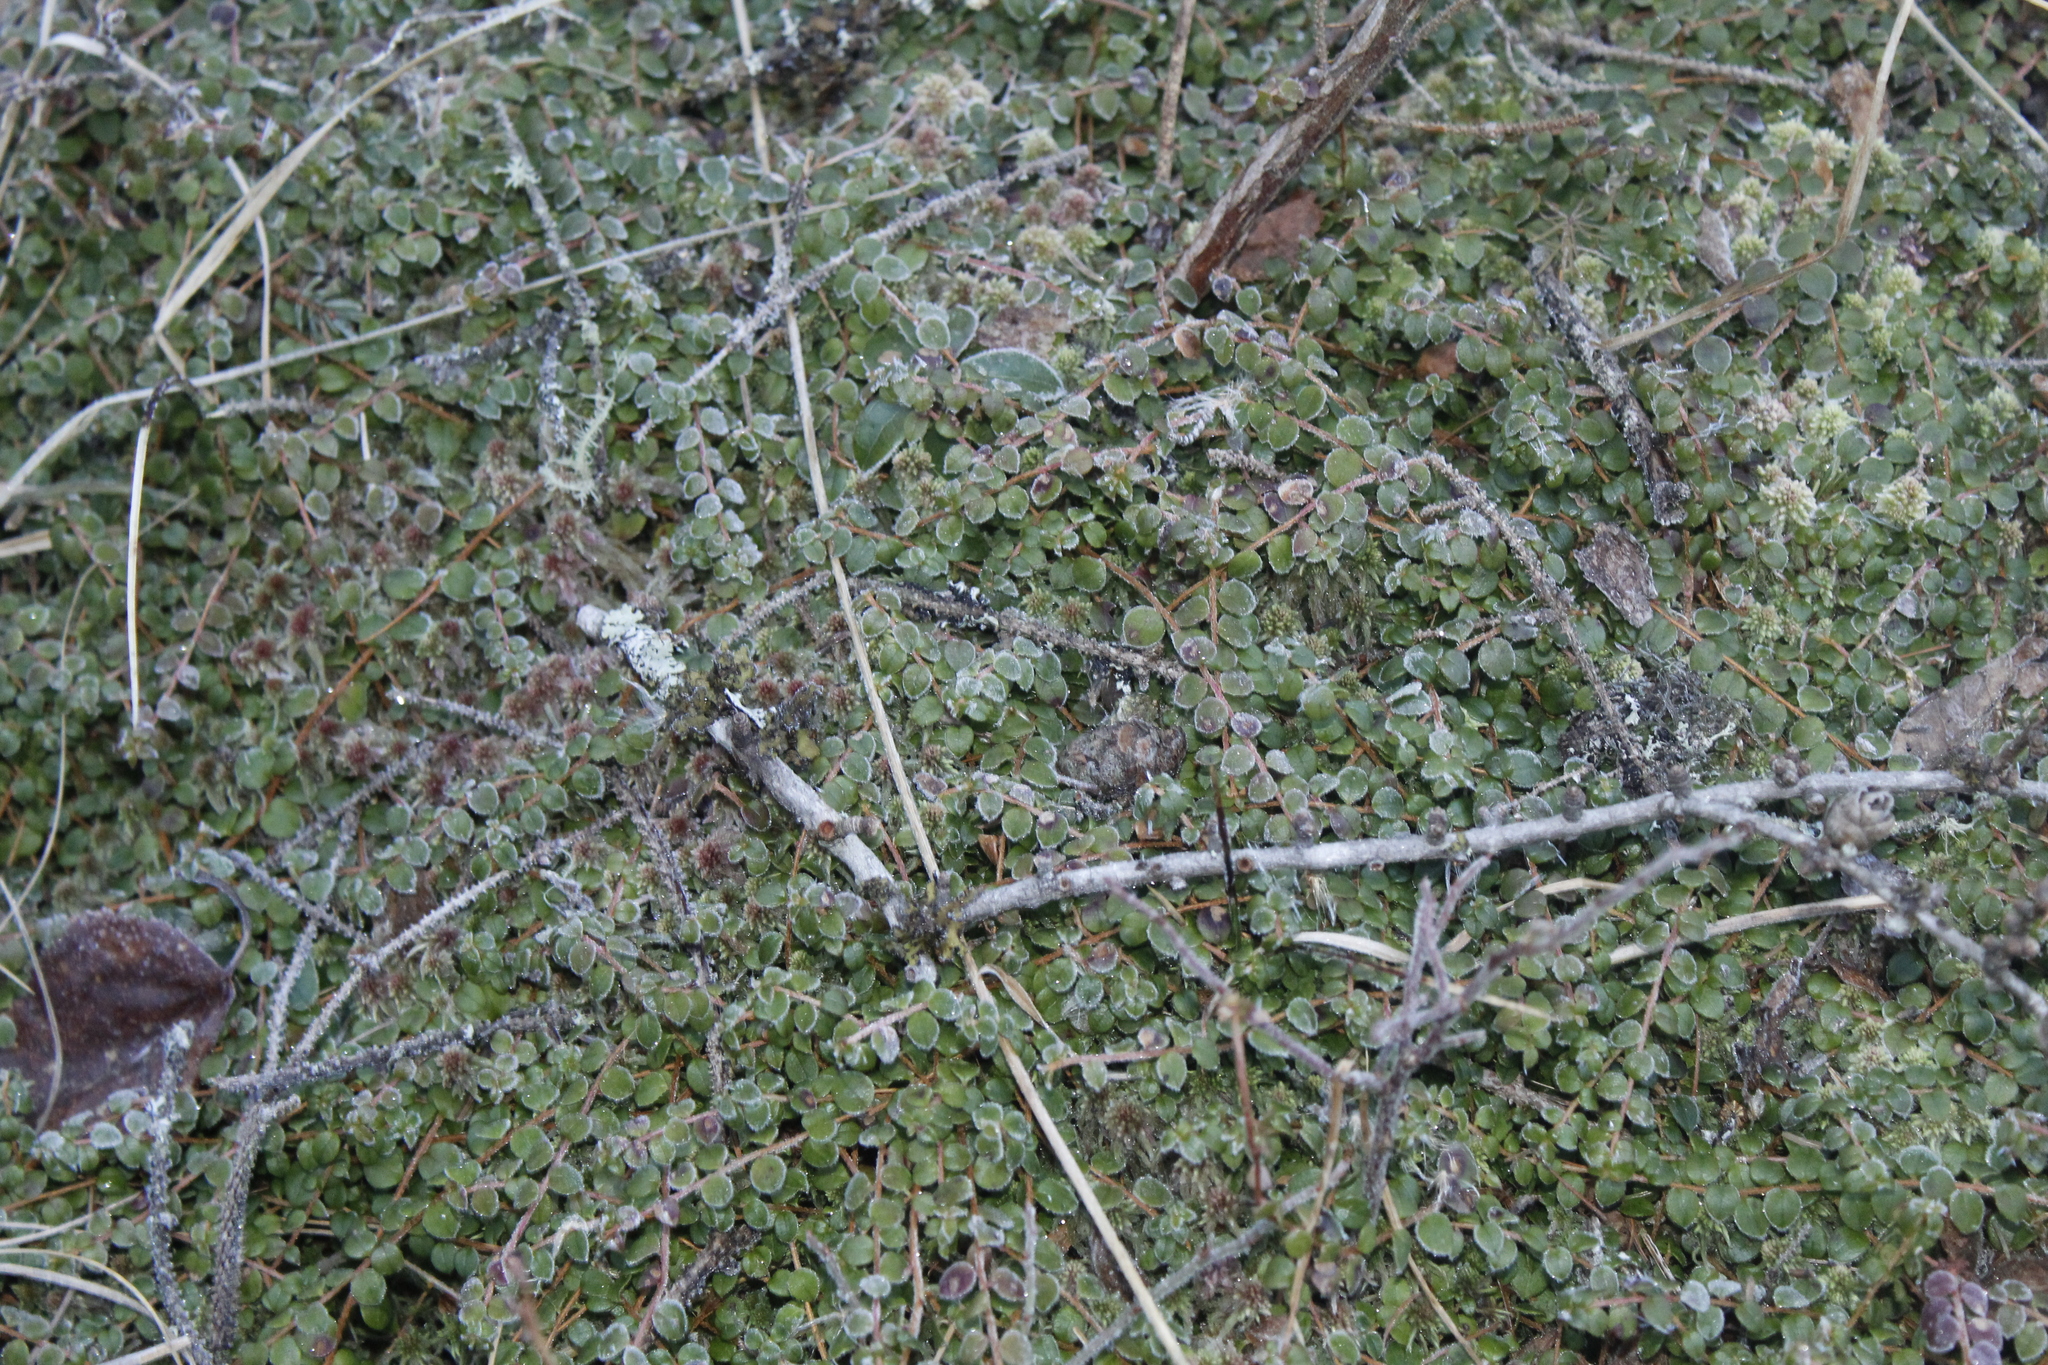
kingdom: Plantae
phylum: Tracheophyta
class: Magnoliopsida
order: Ericales
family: Ericaceae
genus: Gaultheria
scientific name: Gaultheria hispidula
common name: Cancer wintergreen
